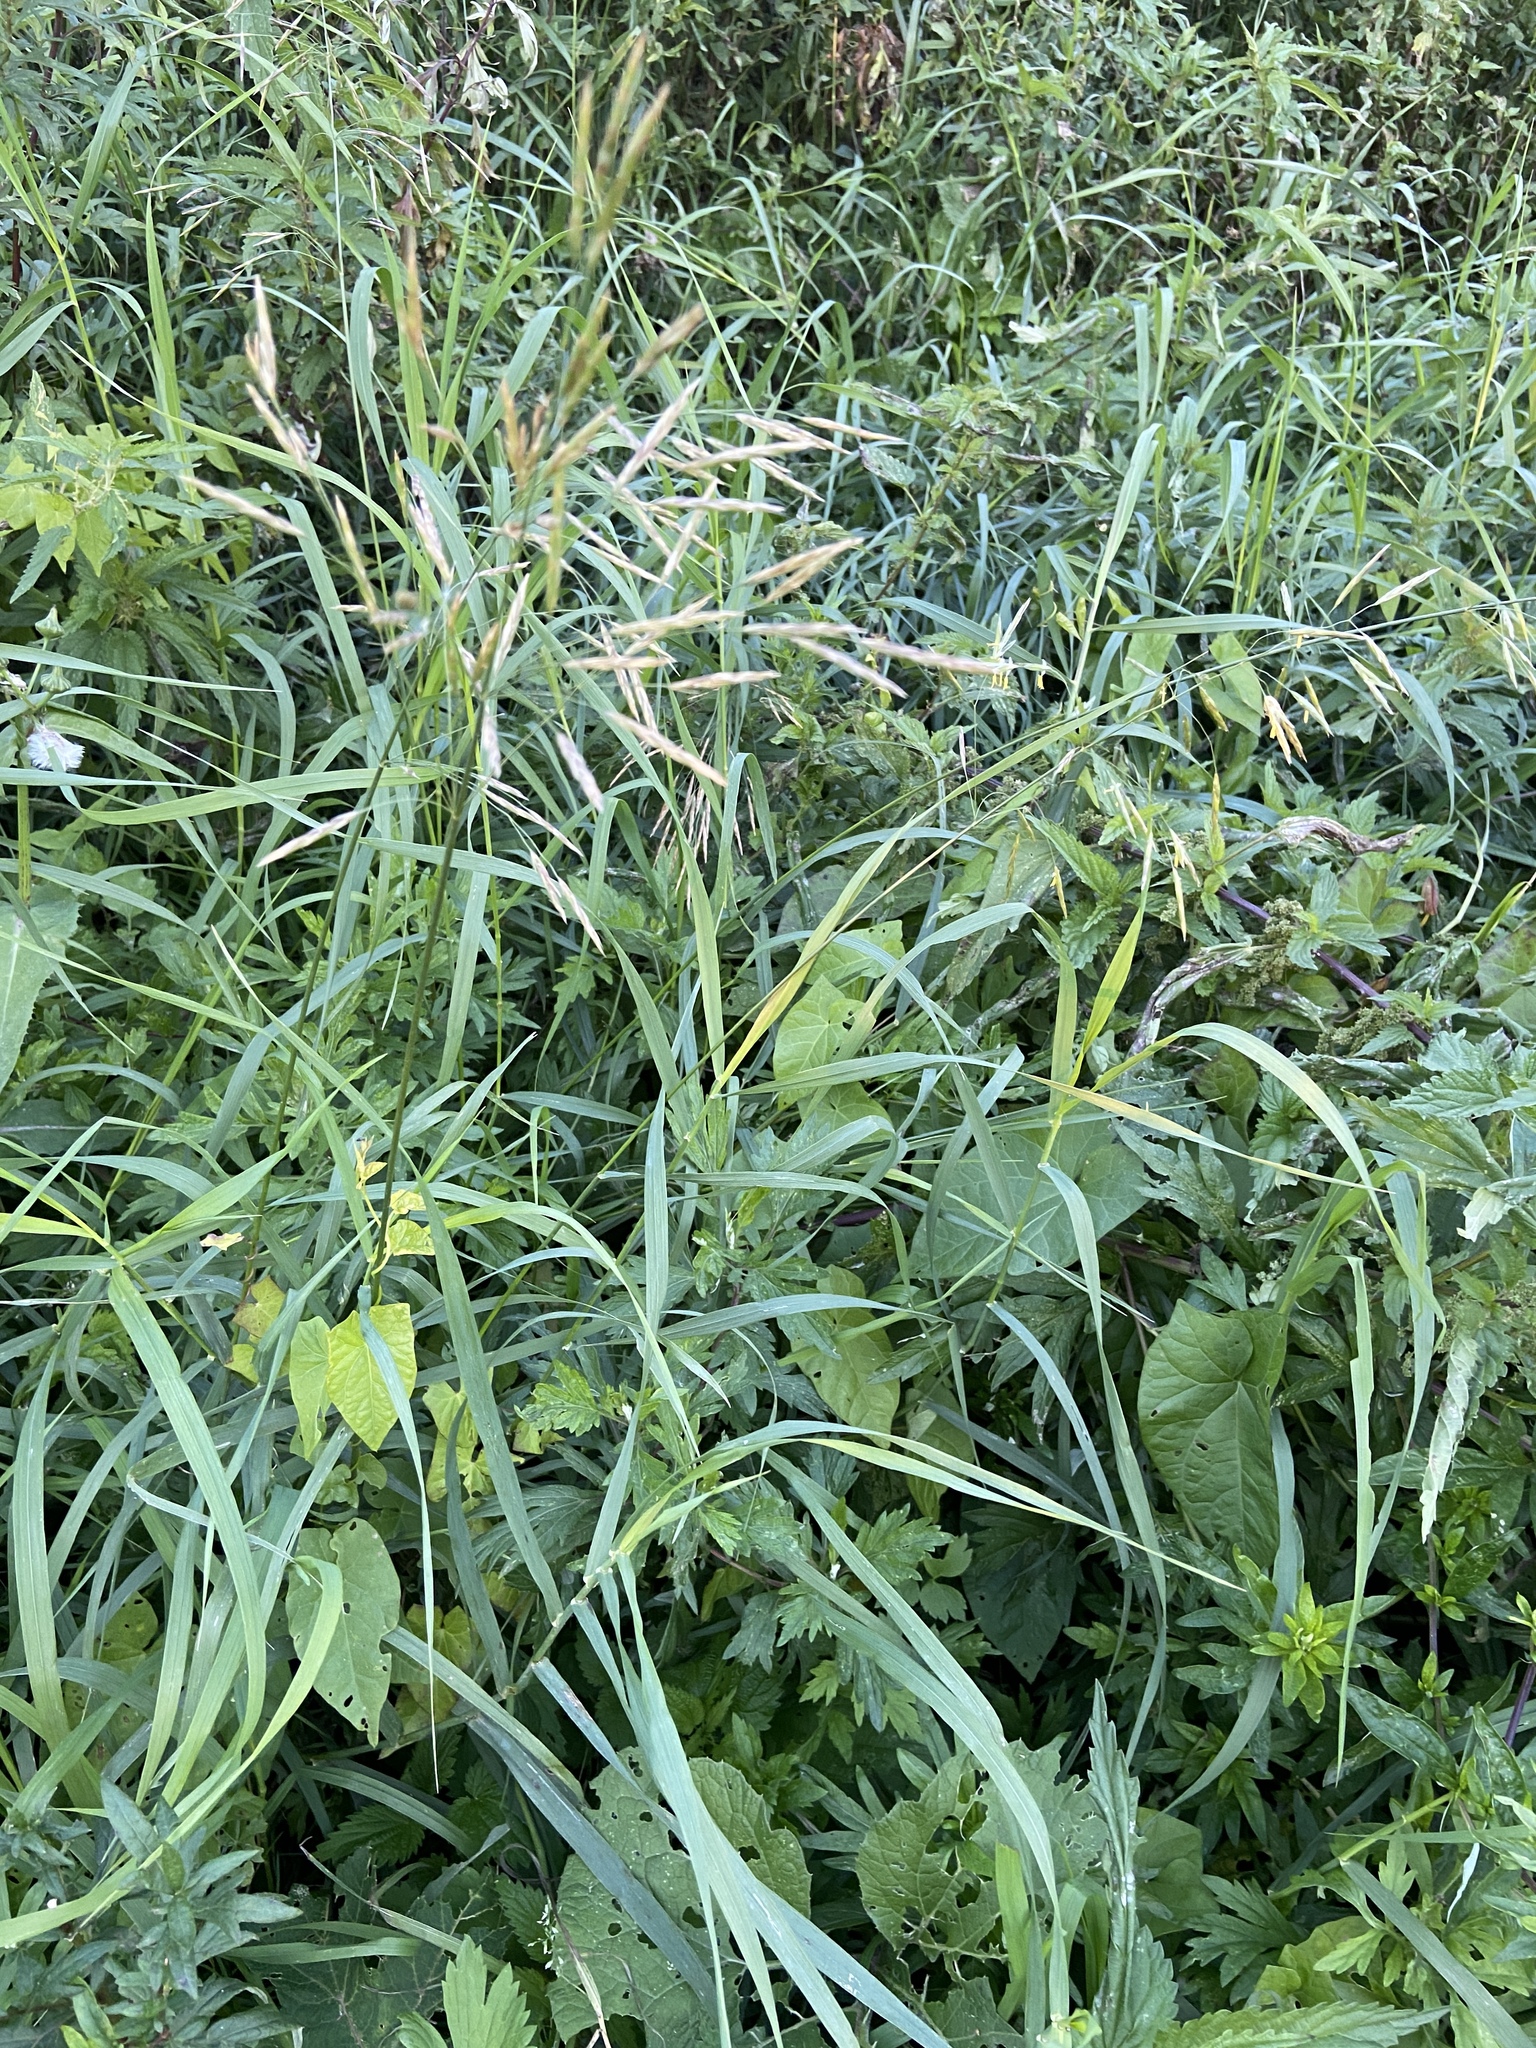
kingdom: Plantae
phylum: Tracheophyta
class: Liliopsida
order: Poales
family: Poaceae
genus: Bromus
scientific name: Bromus inermis
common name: Smooth brome
